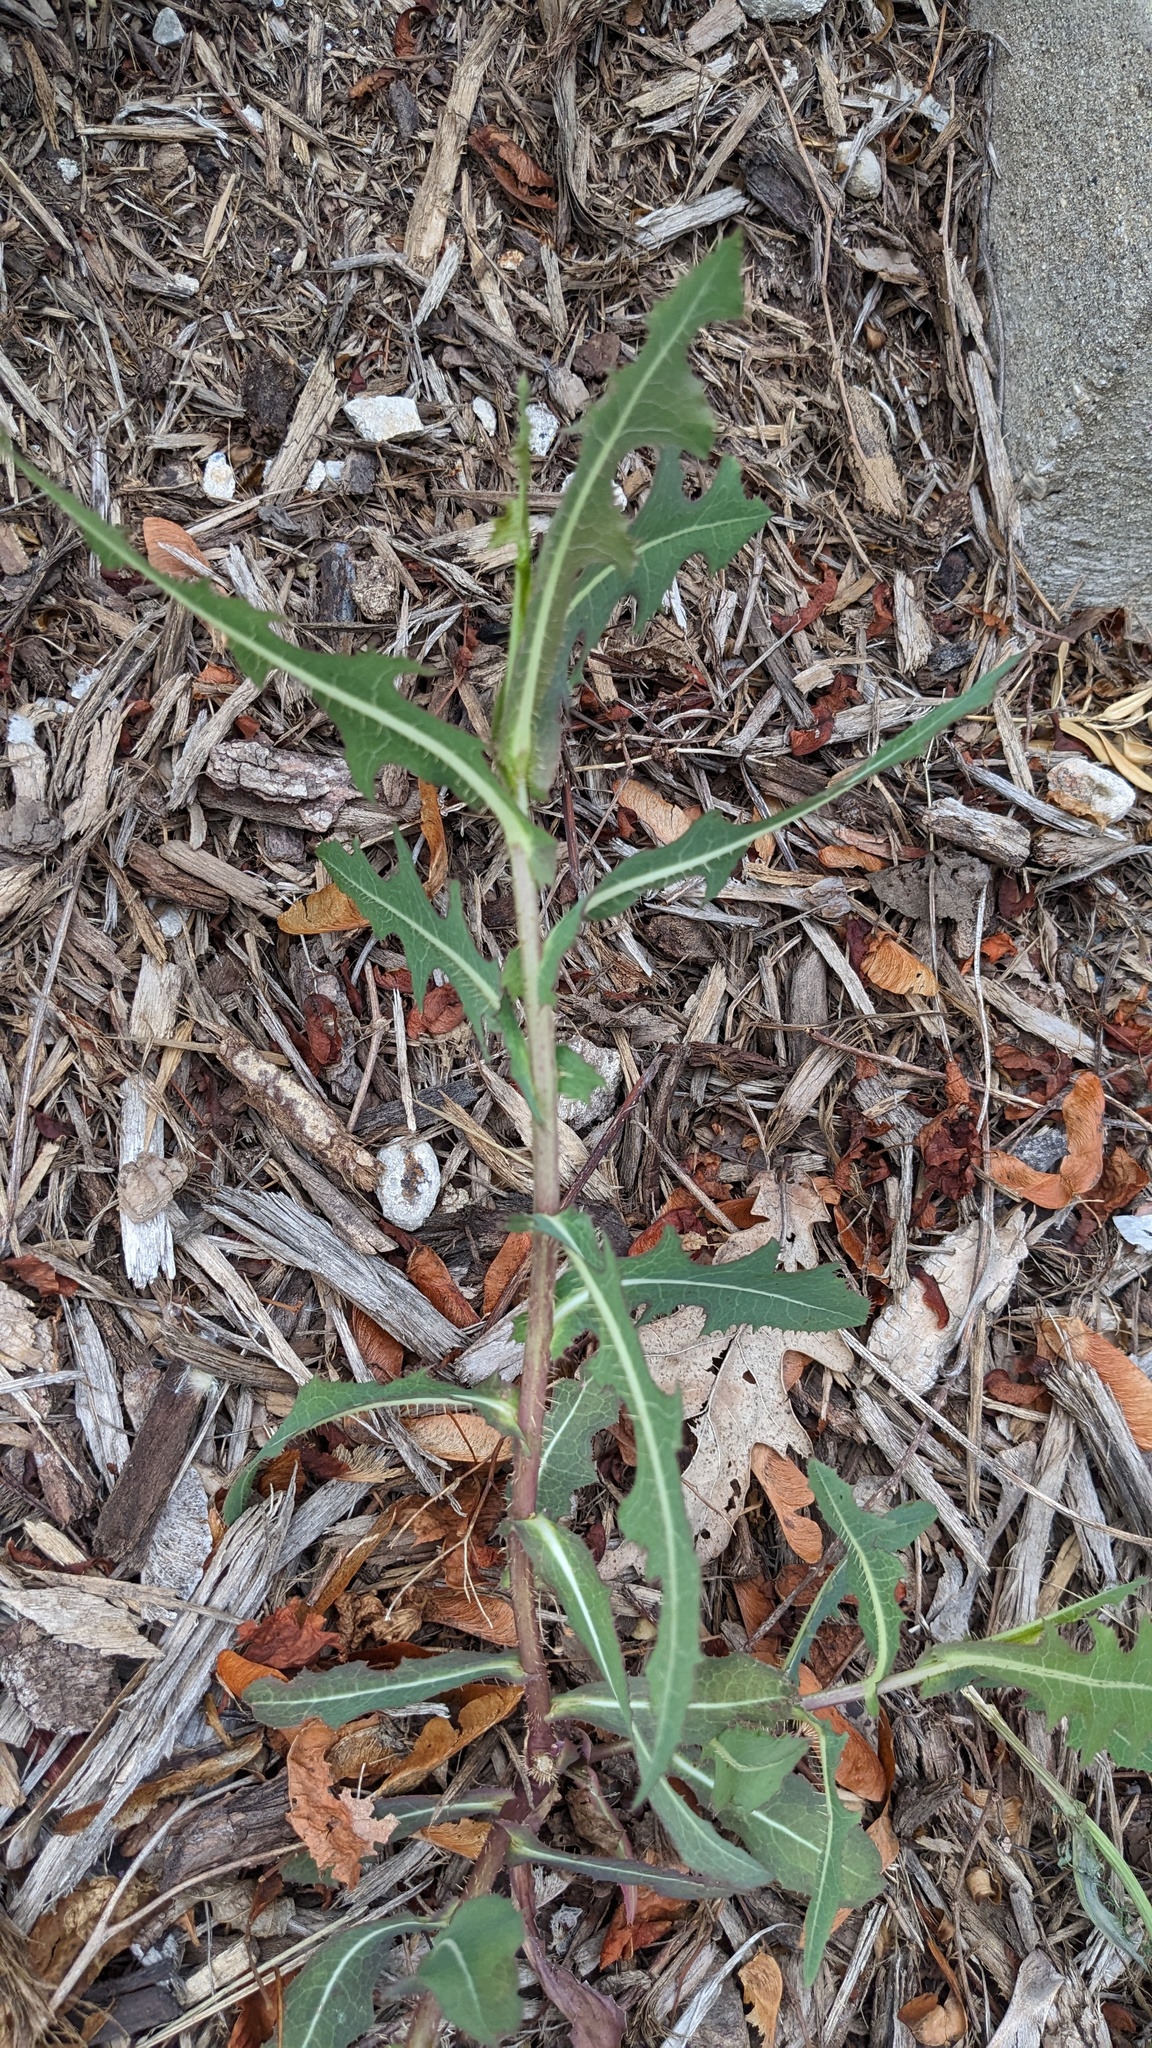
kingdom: Plantae
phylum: Tracheophyta
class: Magnoliopsida
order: Asterales
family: Asteraceae
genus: Lactuca
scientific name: Lactuca serriola
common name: Prickly lettuce
